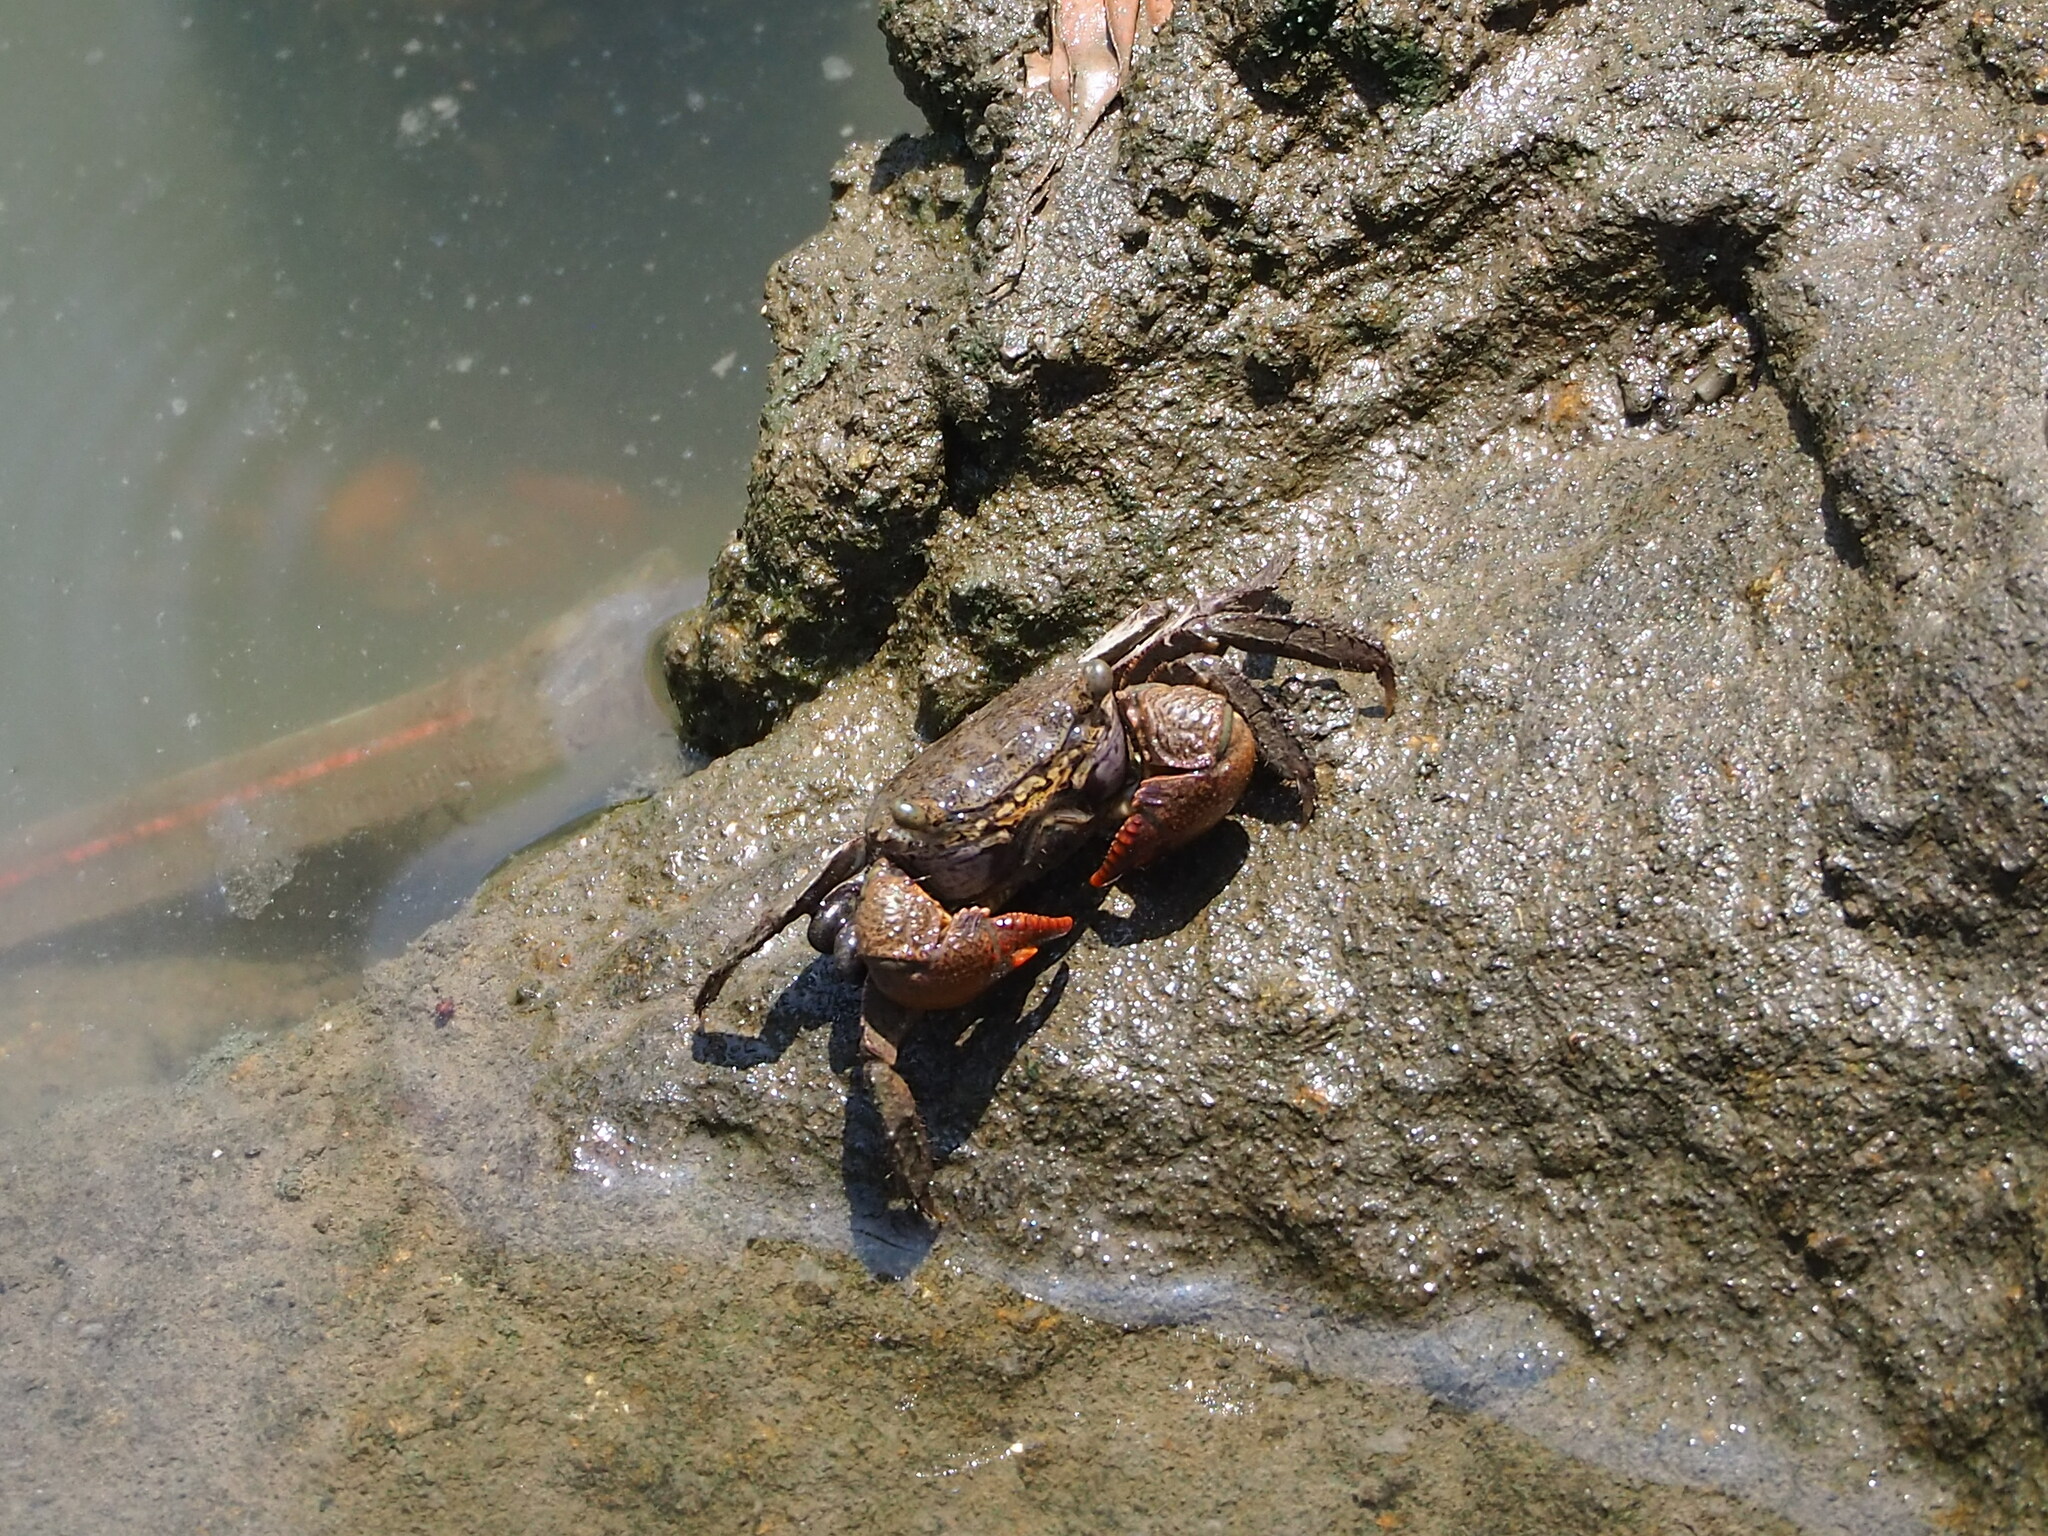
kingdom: Animalia
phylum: Arthropoda
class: Malacostraca
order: Decapoda
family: Sesarmidae
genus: Parasesarma
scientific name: Parasesarma insulare
